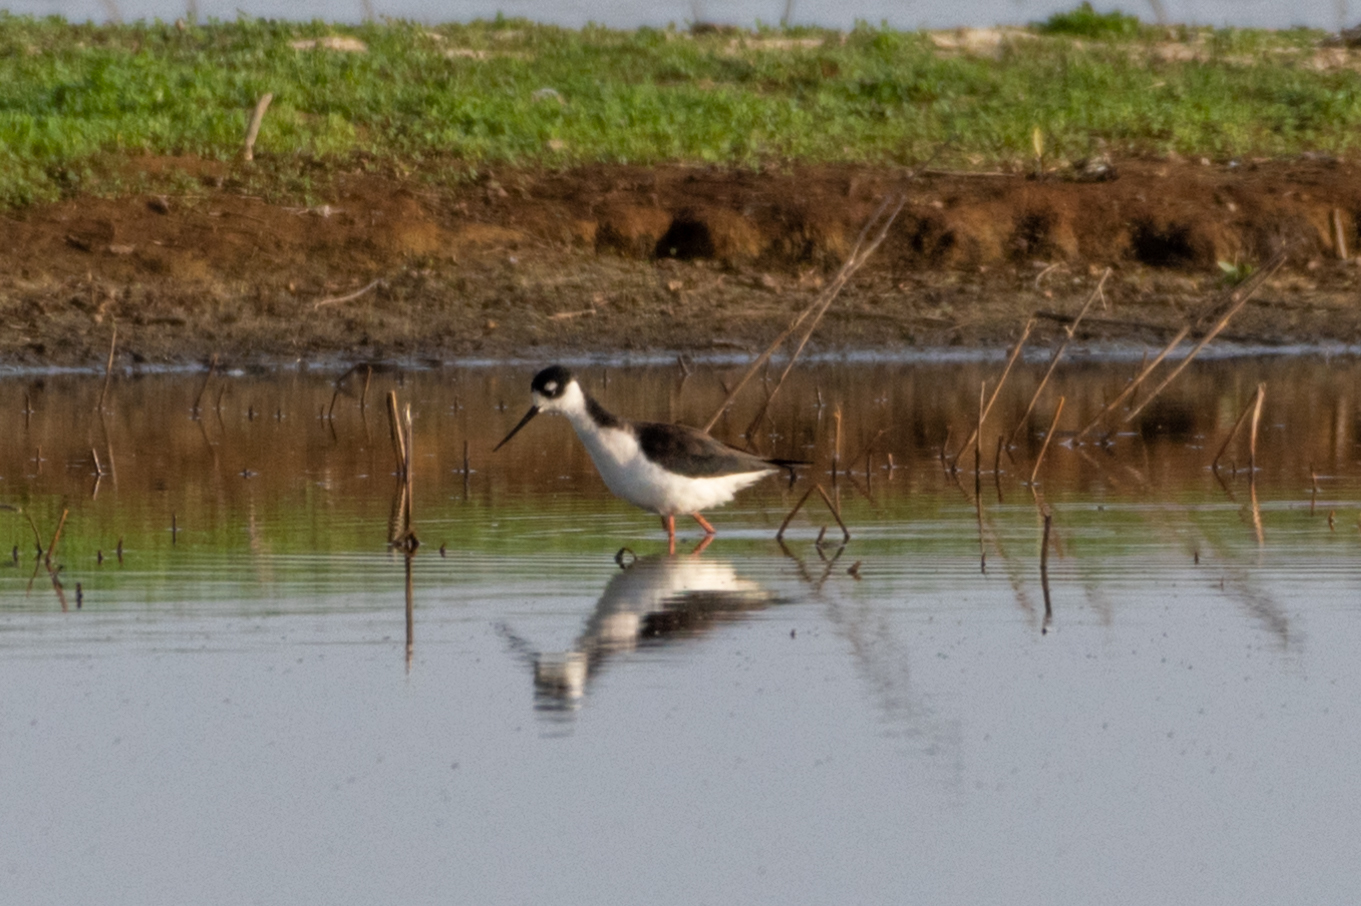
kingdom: Animalia
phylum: Chordata
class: Aves
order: Charadriiformes
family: Recurvirostridae
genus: Himantopus
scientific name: Himantopus mexicanus
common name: Black-necked stilt
